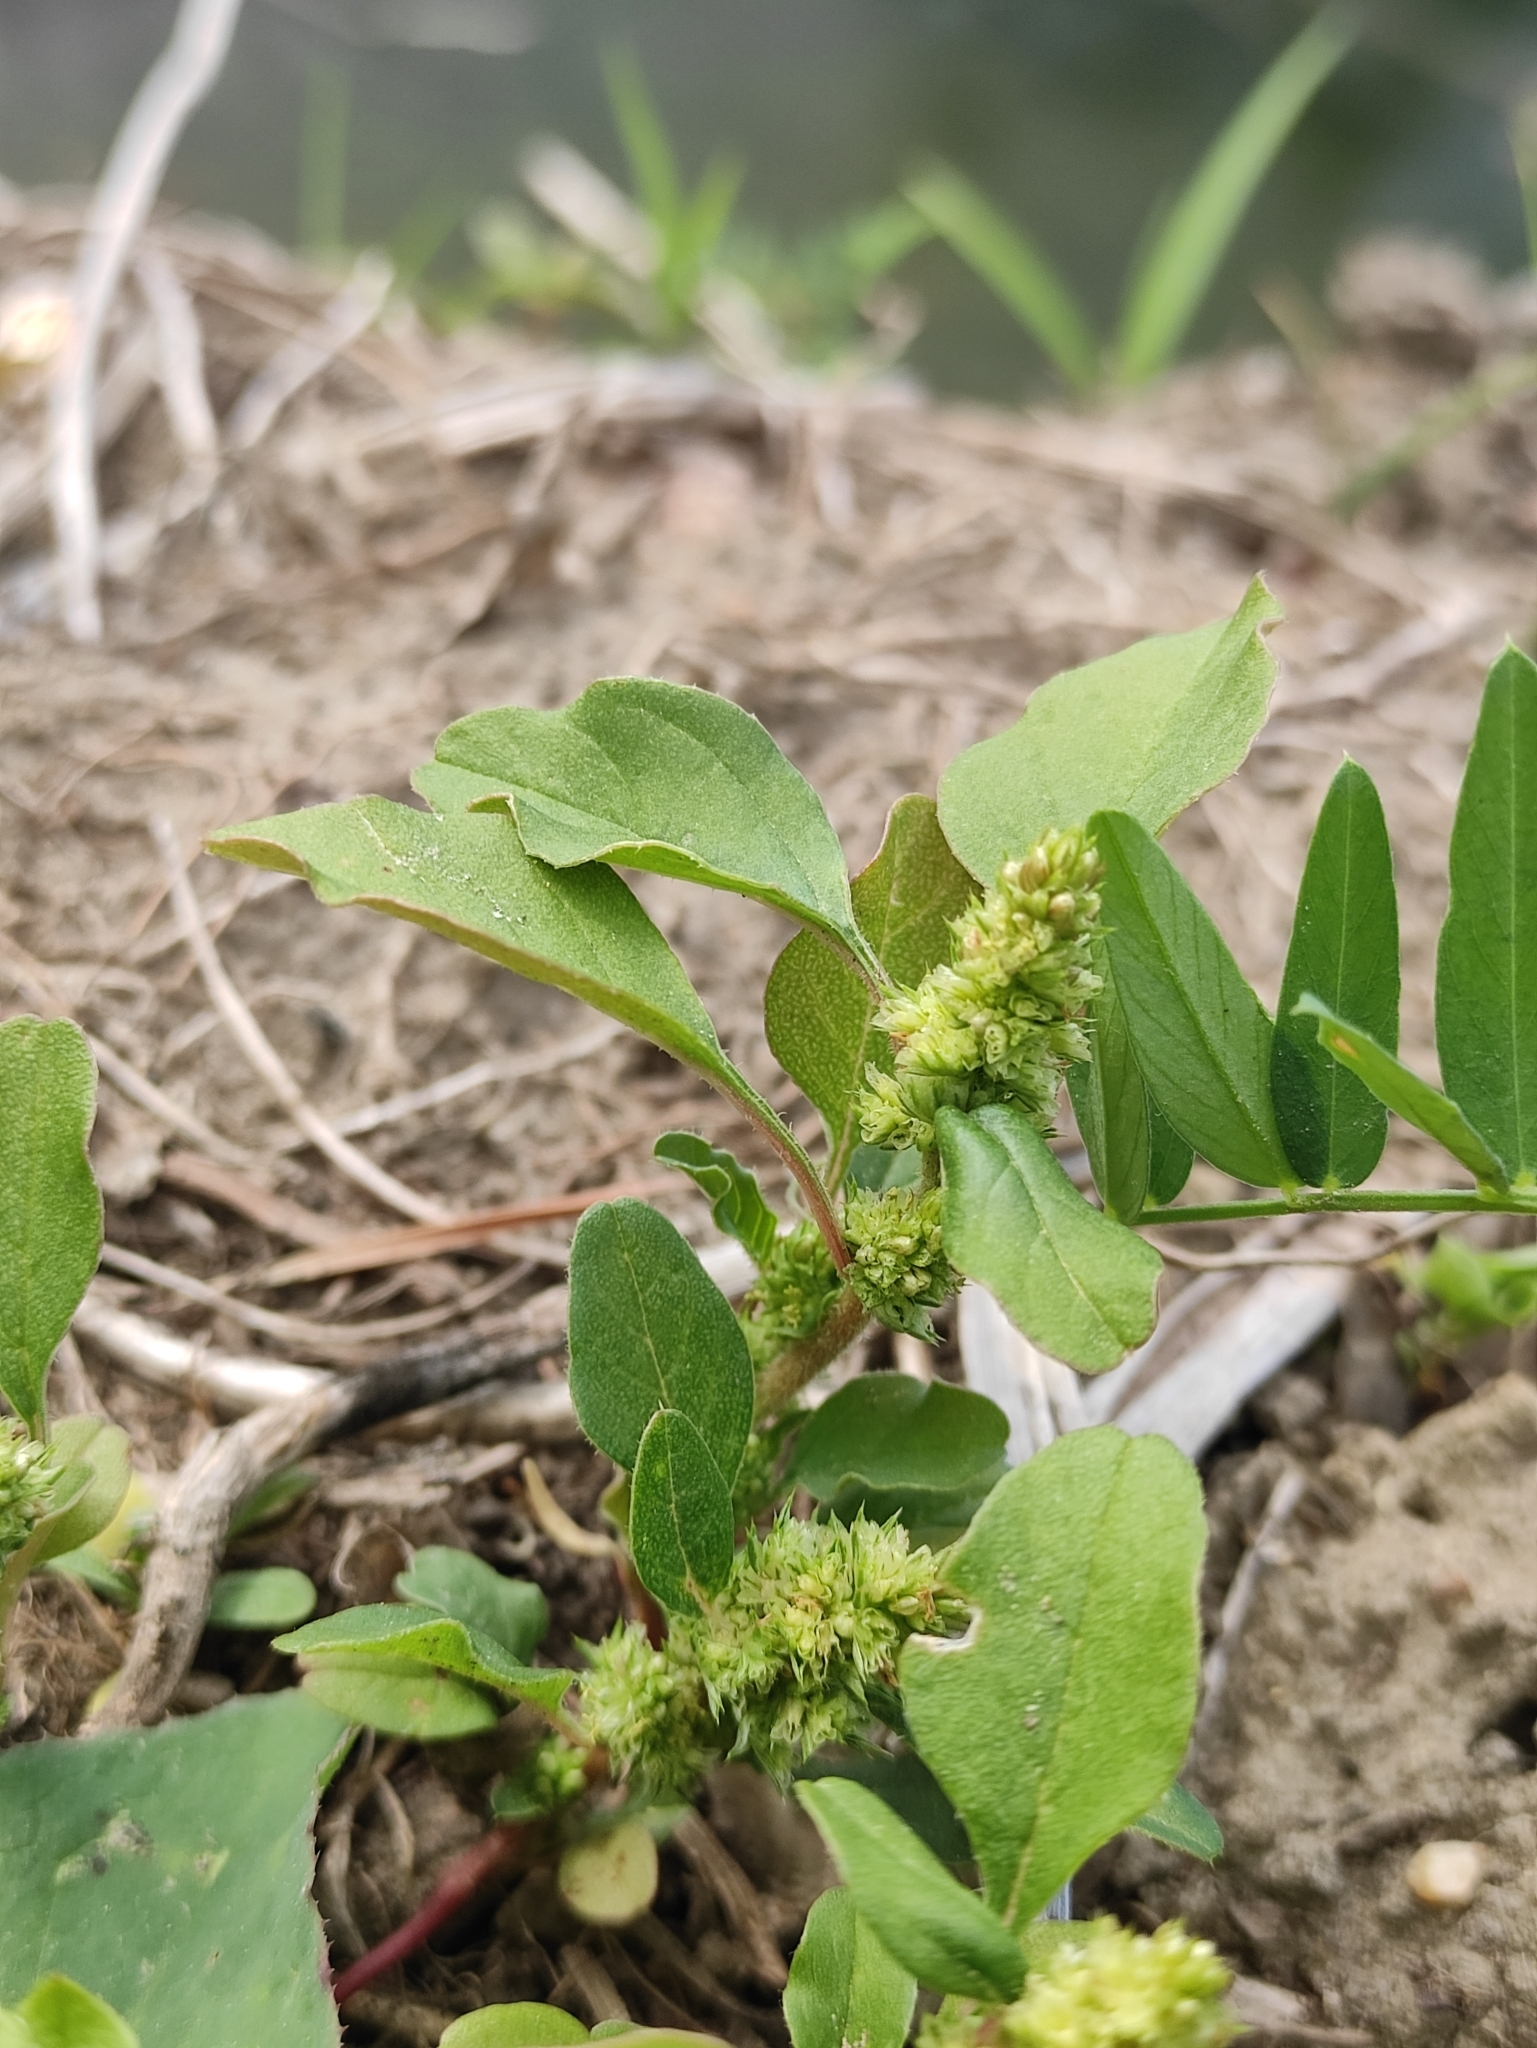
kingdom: Plantae
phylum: Tracheophyta
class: Magnoliopsida
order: Caryophyllales
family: Amaranthaceae
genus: Amaranthus
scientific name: Amaranthus retroflexus
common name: Redroot amaranth
